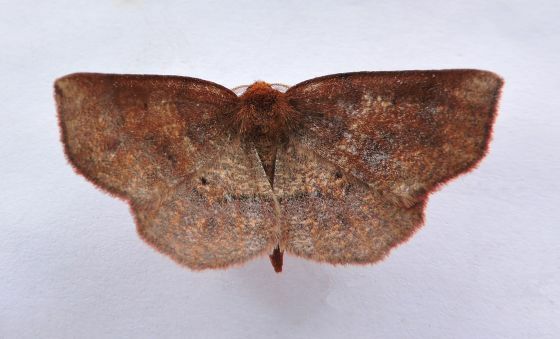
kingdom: Animalia
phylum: Arthropoda
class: Insecta
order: Lepidoptera
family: Geometridae
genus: Metarranthis
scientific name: Metarranthis angularia
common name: Angled metarranthis moth
